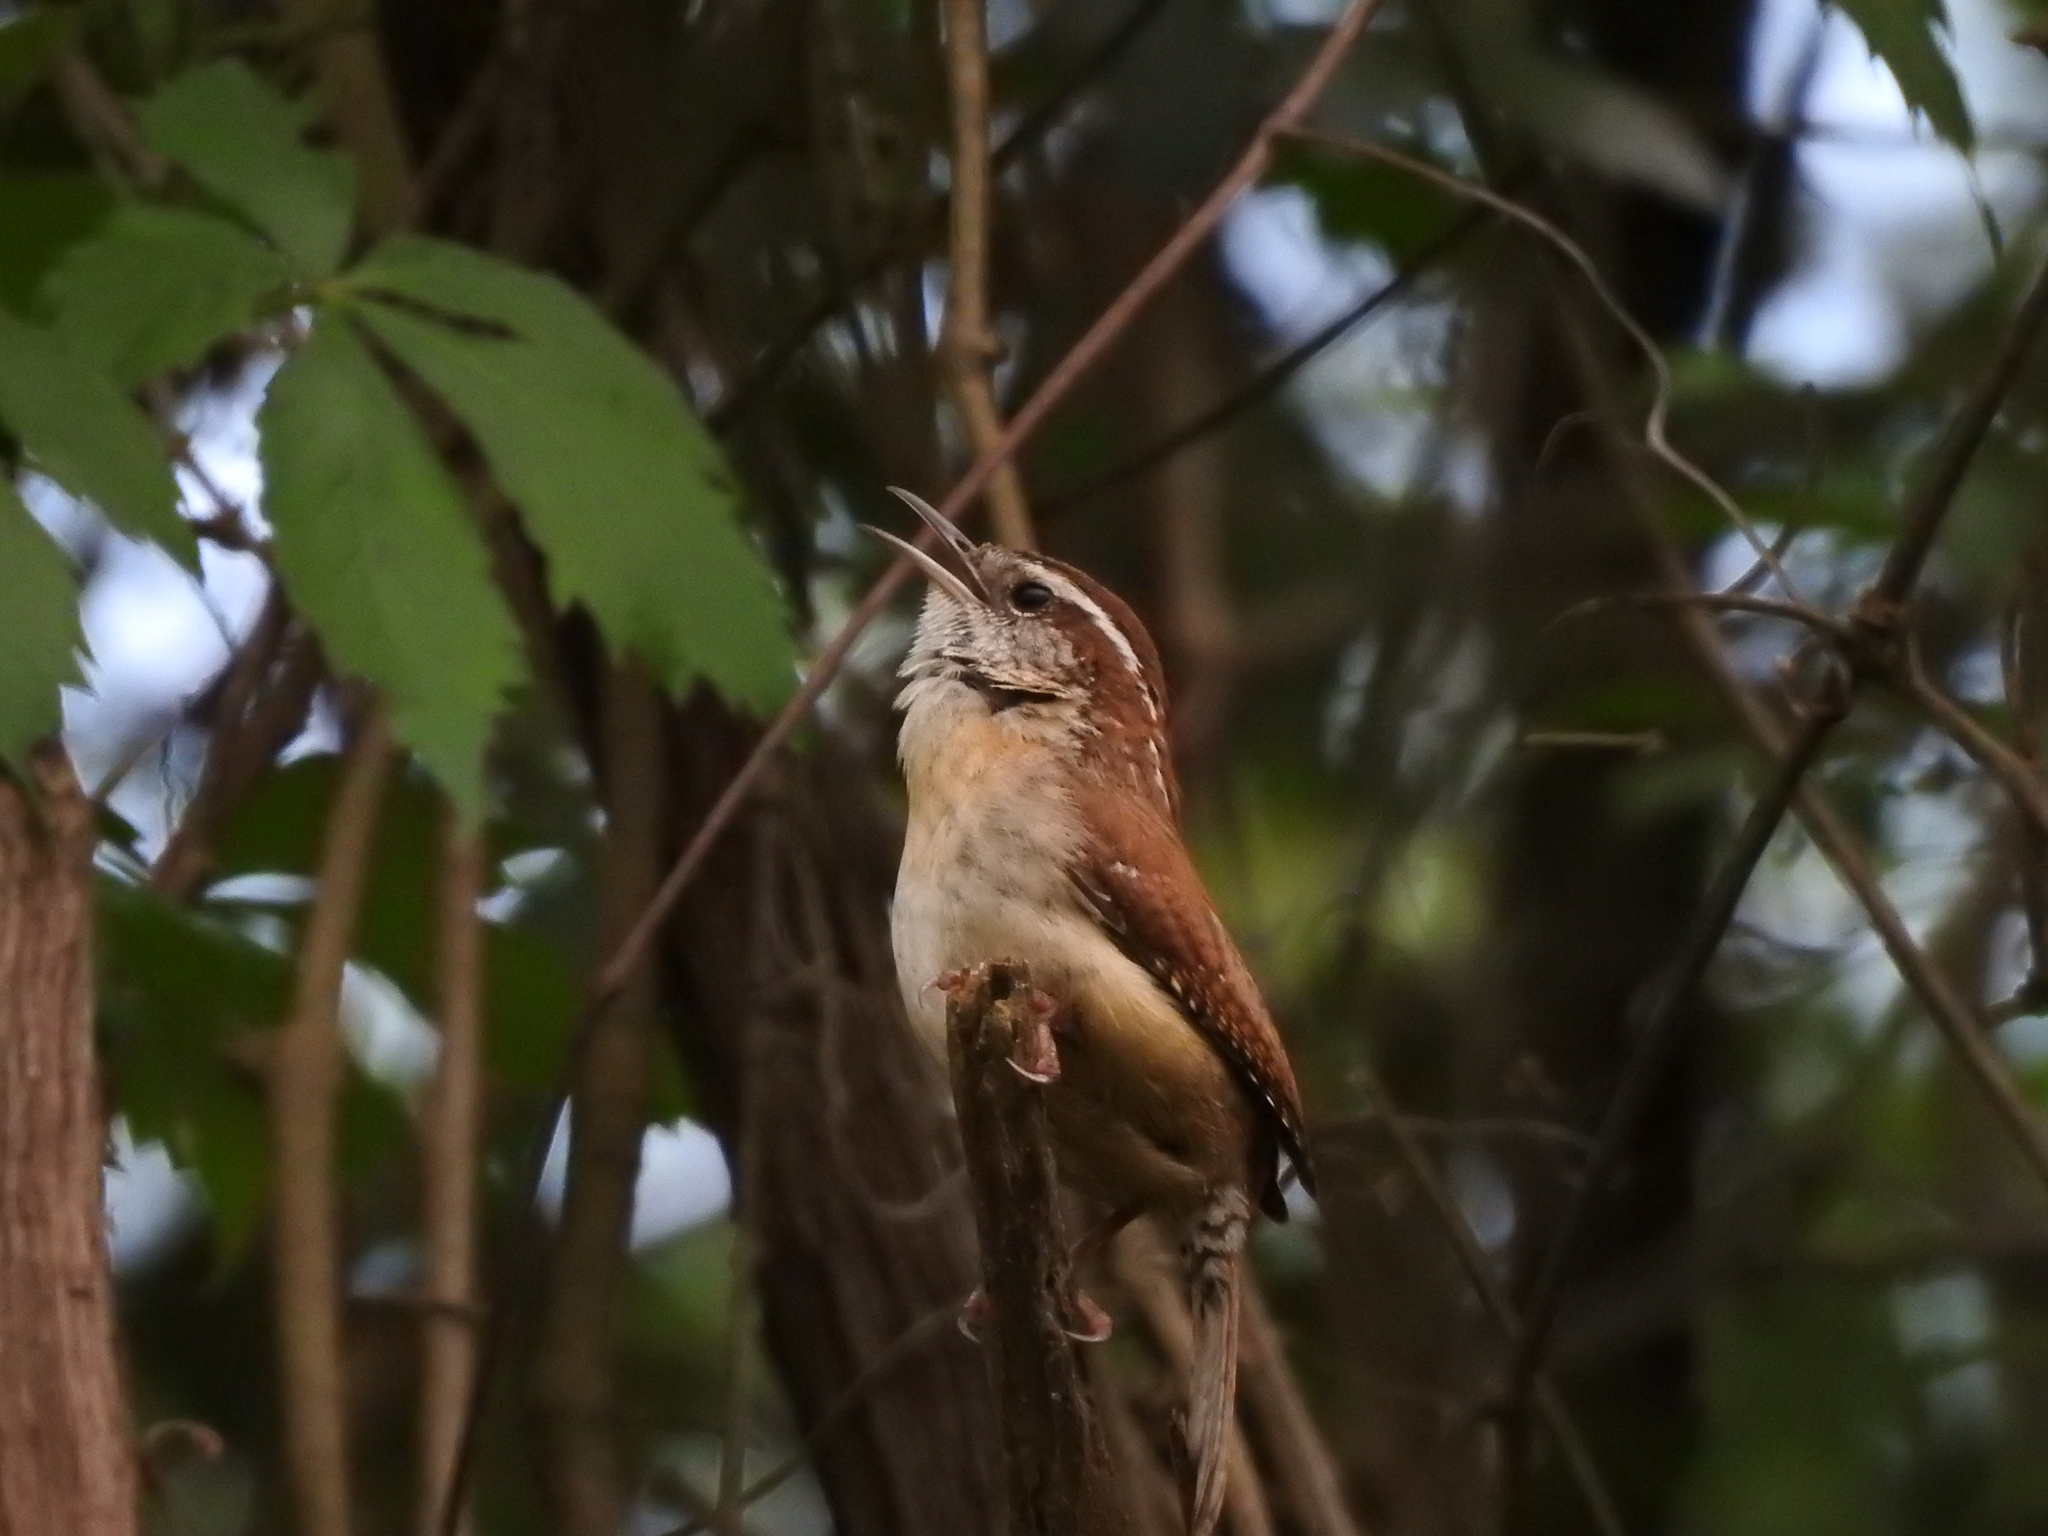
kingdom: Animalia
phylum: Chordata
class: Aves
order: Passeriformes
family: Troglodytidae
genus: Thryothorus
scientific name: Thryothorus ludovicianus
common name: Carolina wren
